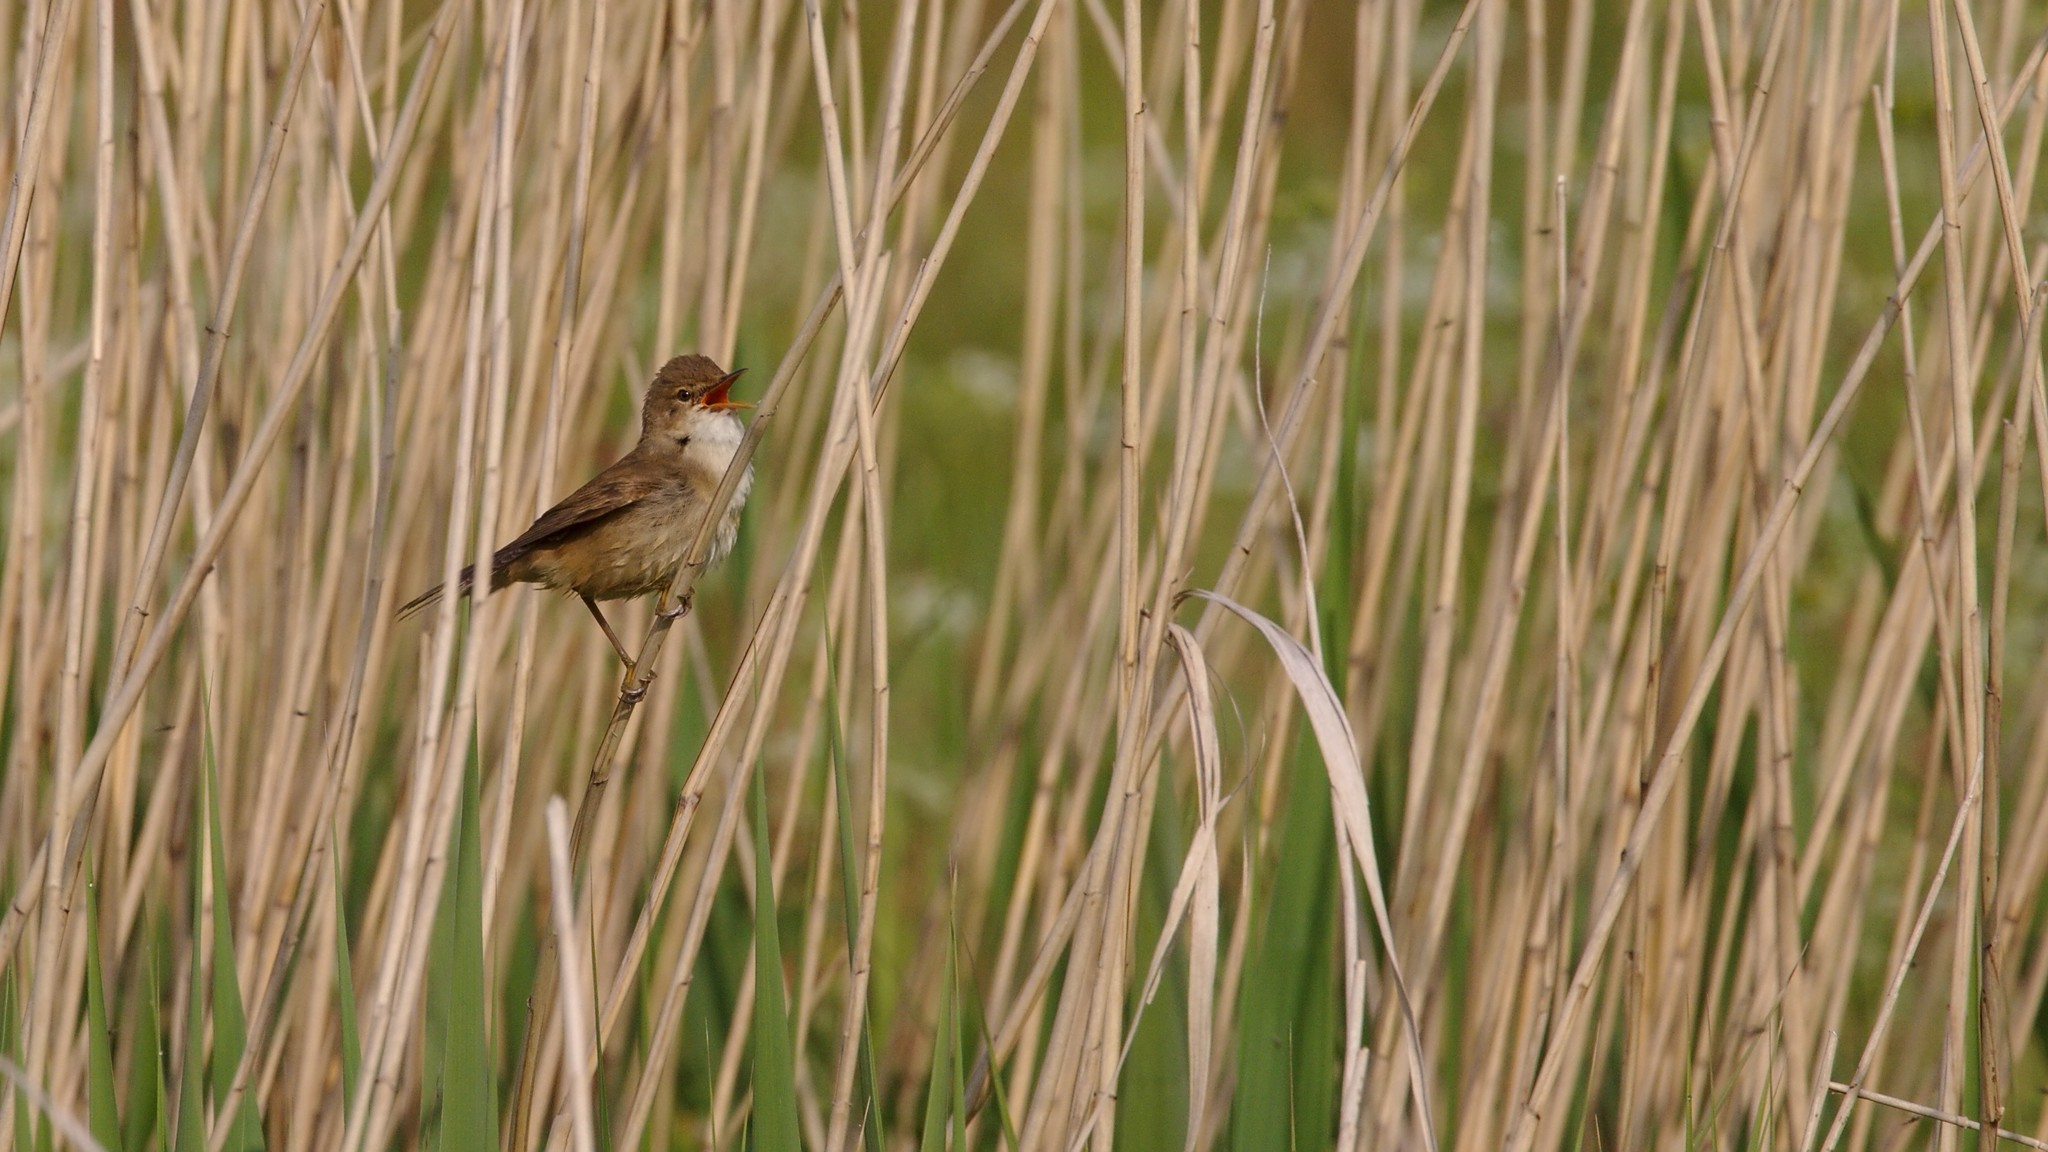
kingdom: Animalia
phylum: Chordata
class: Aves
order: Passeriformes
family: Acrocephalidae
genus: Acrocephalus
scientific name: Acrocephalus scirpaceus
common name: Eurasian reed warbler
